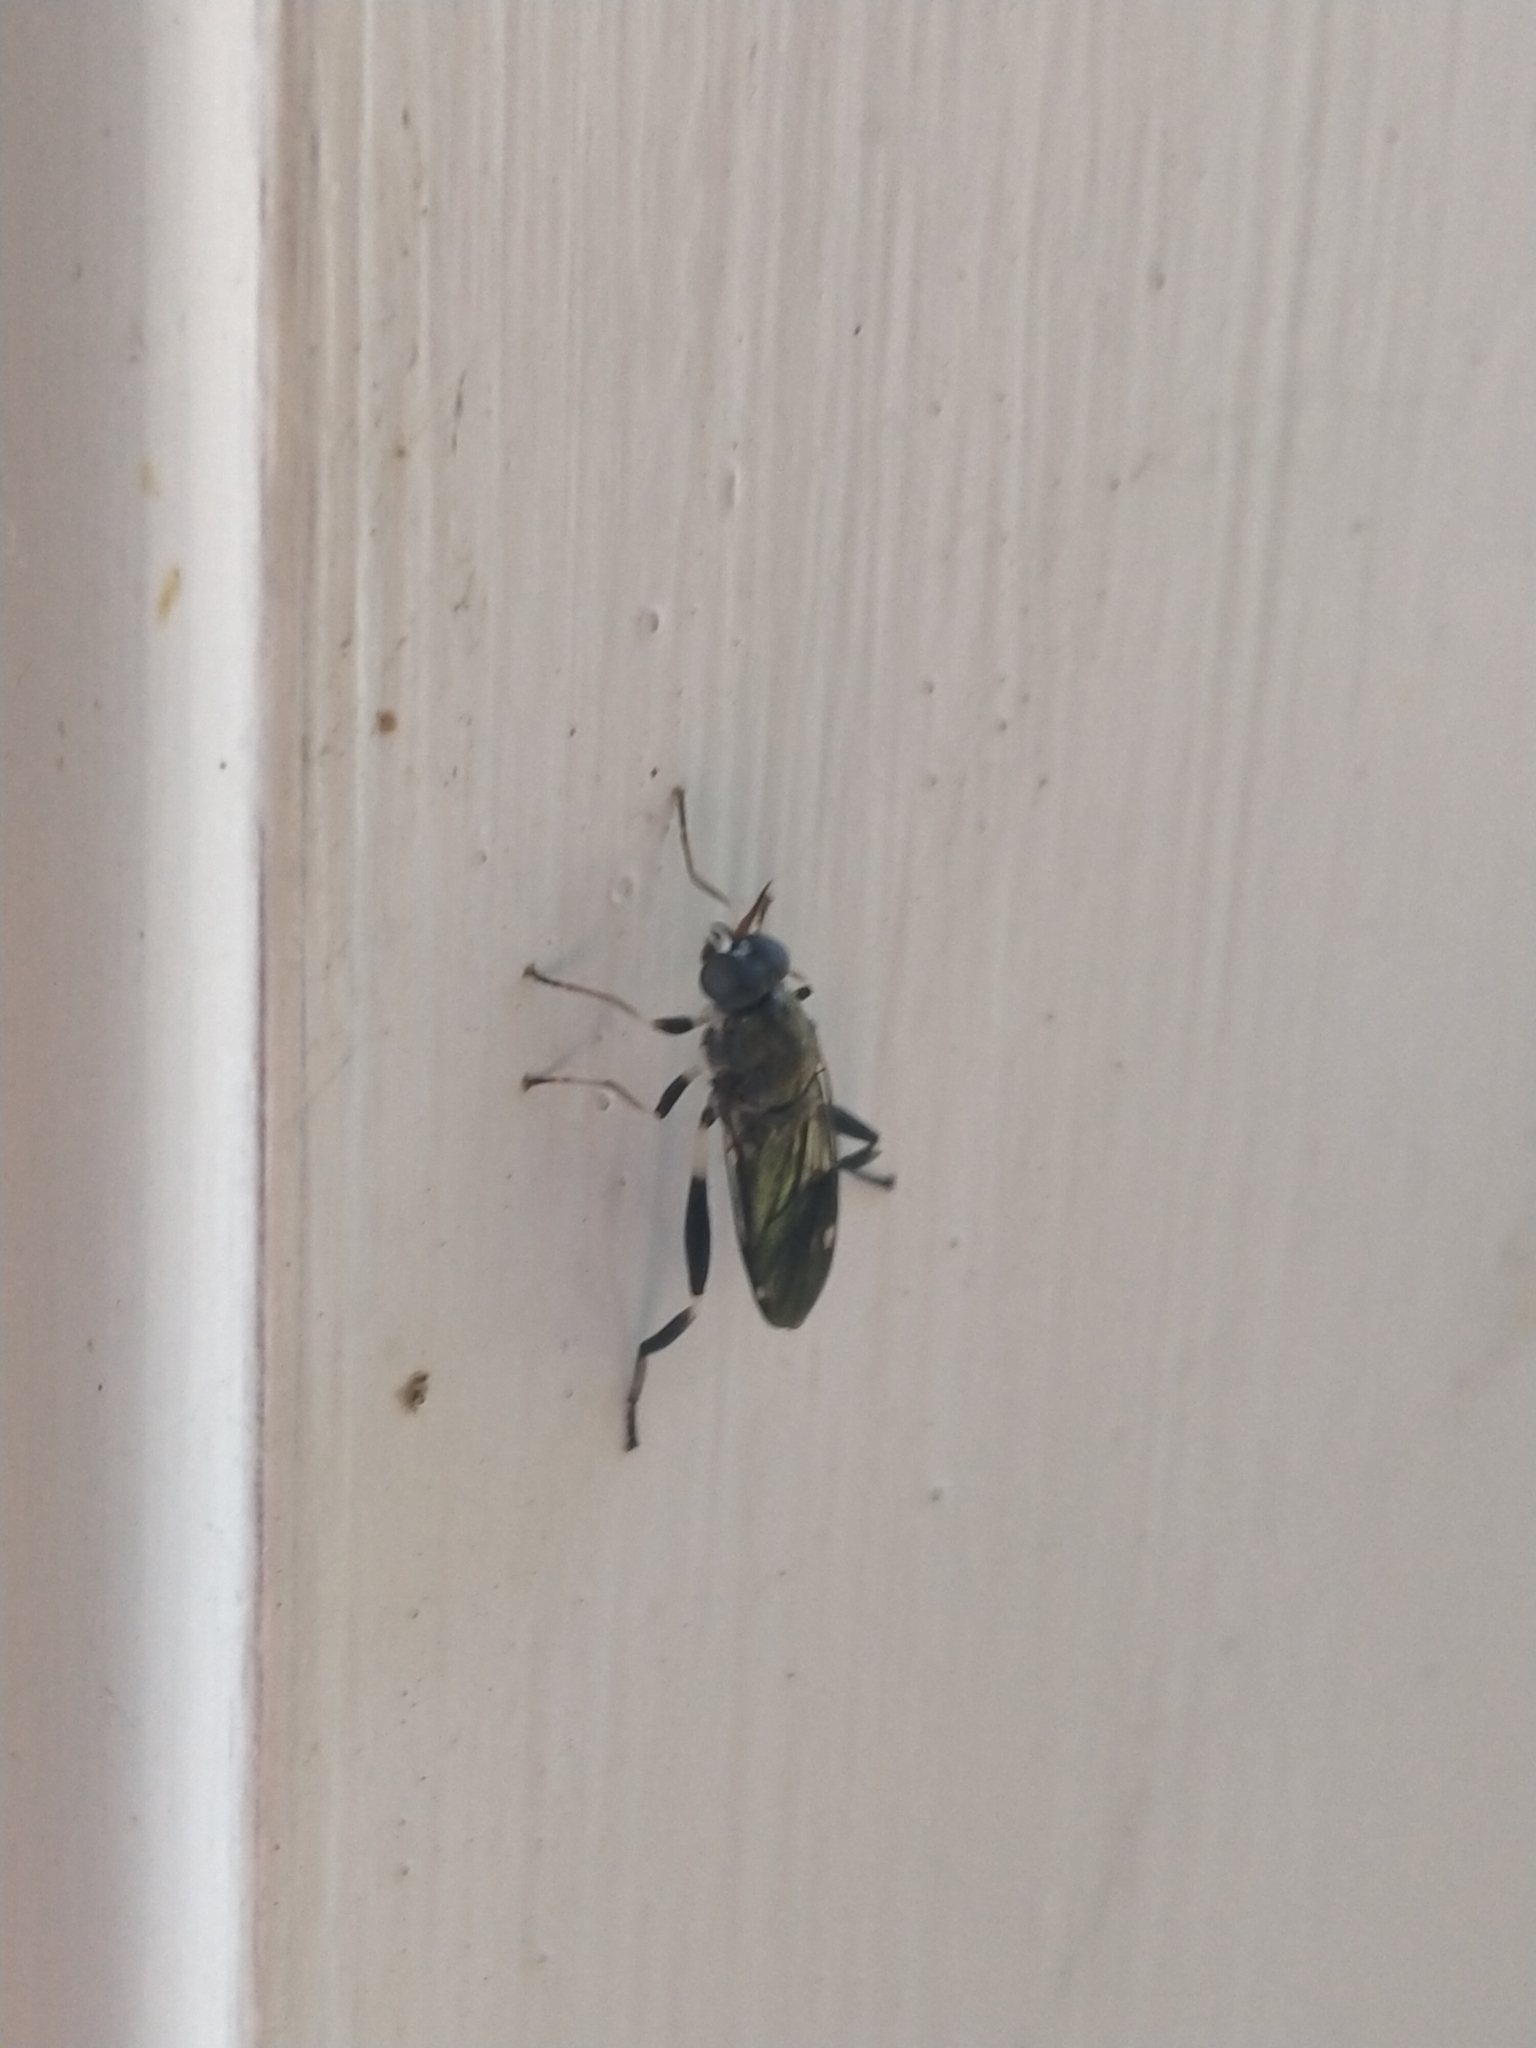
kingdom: Animalia
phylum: Arthropoda
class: Insecta
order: Diptera
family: Stratiomyidae
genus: Exaireta
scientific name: Exaireta spinigera
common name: Blue soldier fly
